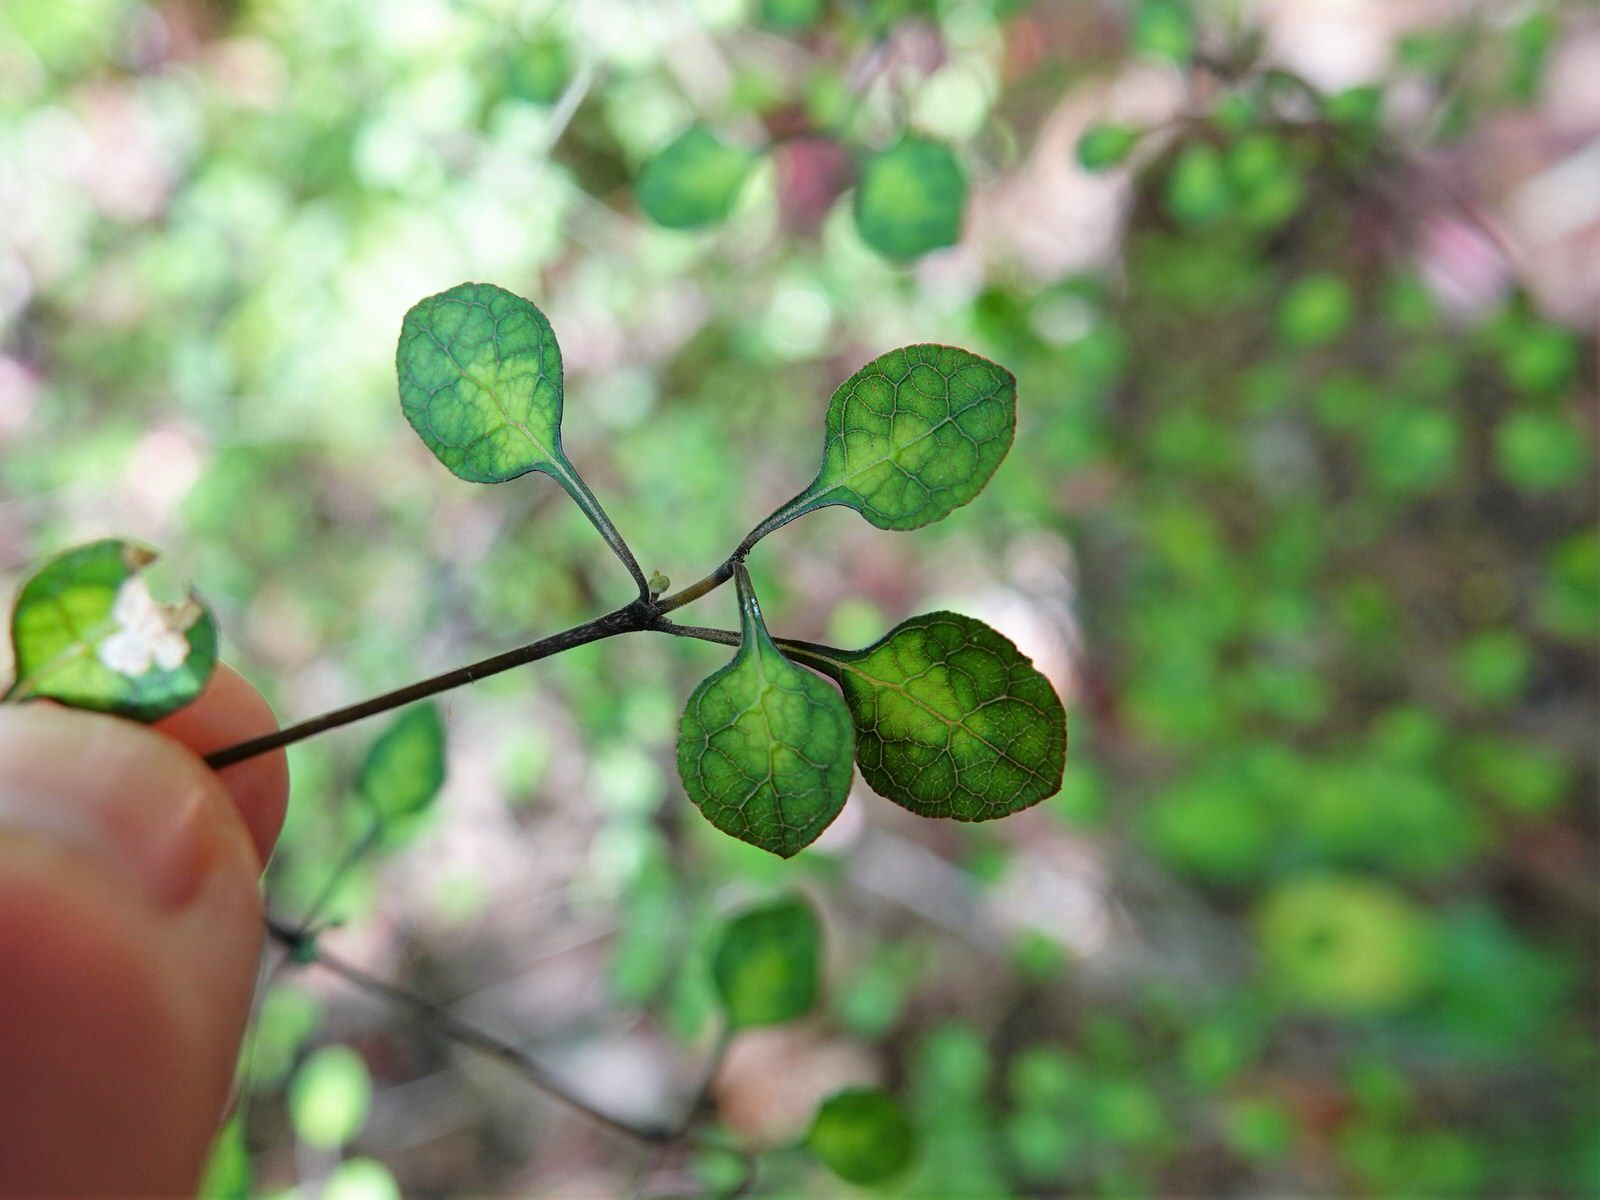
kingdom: Plantae
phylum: Tracheophyta
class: Magnoliopsida
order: Gentianales
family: Rubiaceae
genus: Coprosma
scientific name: Coprosma tenuicaulis
